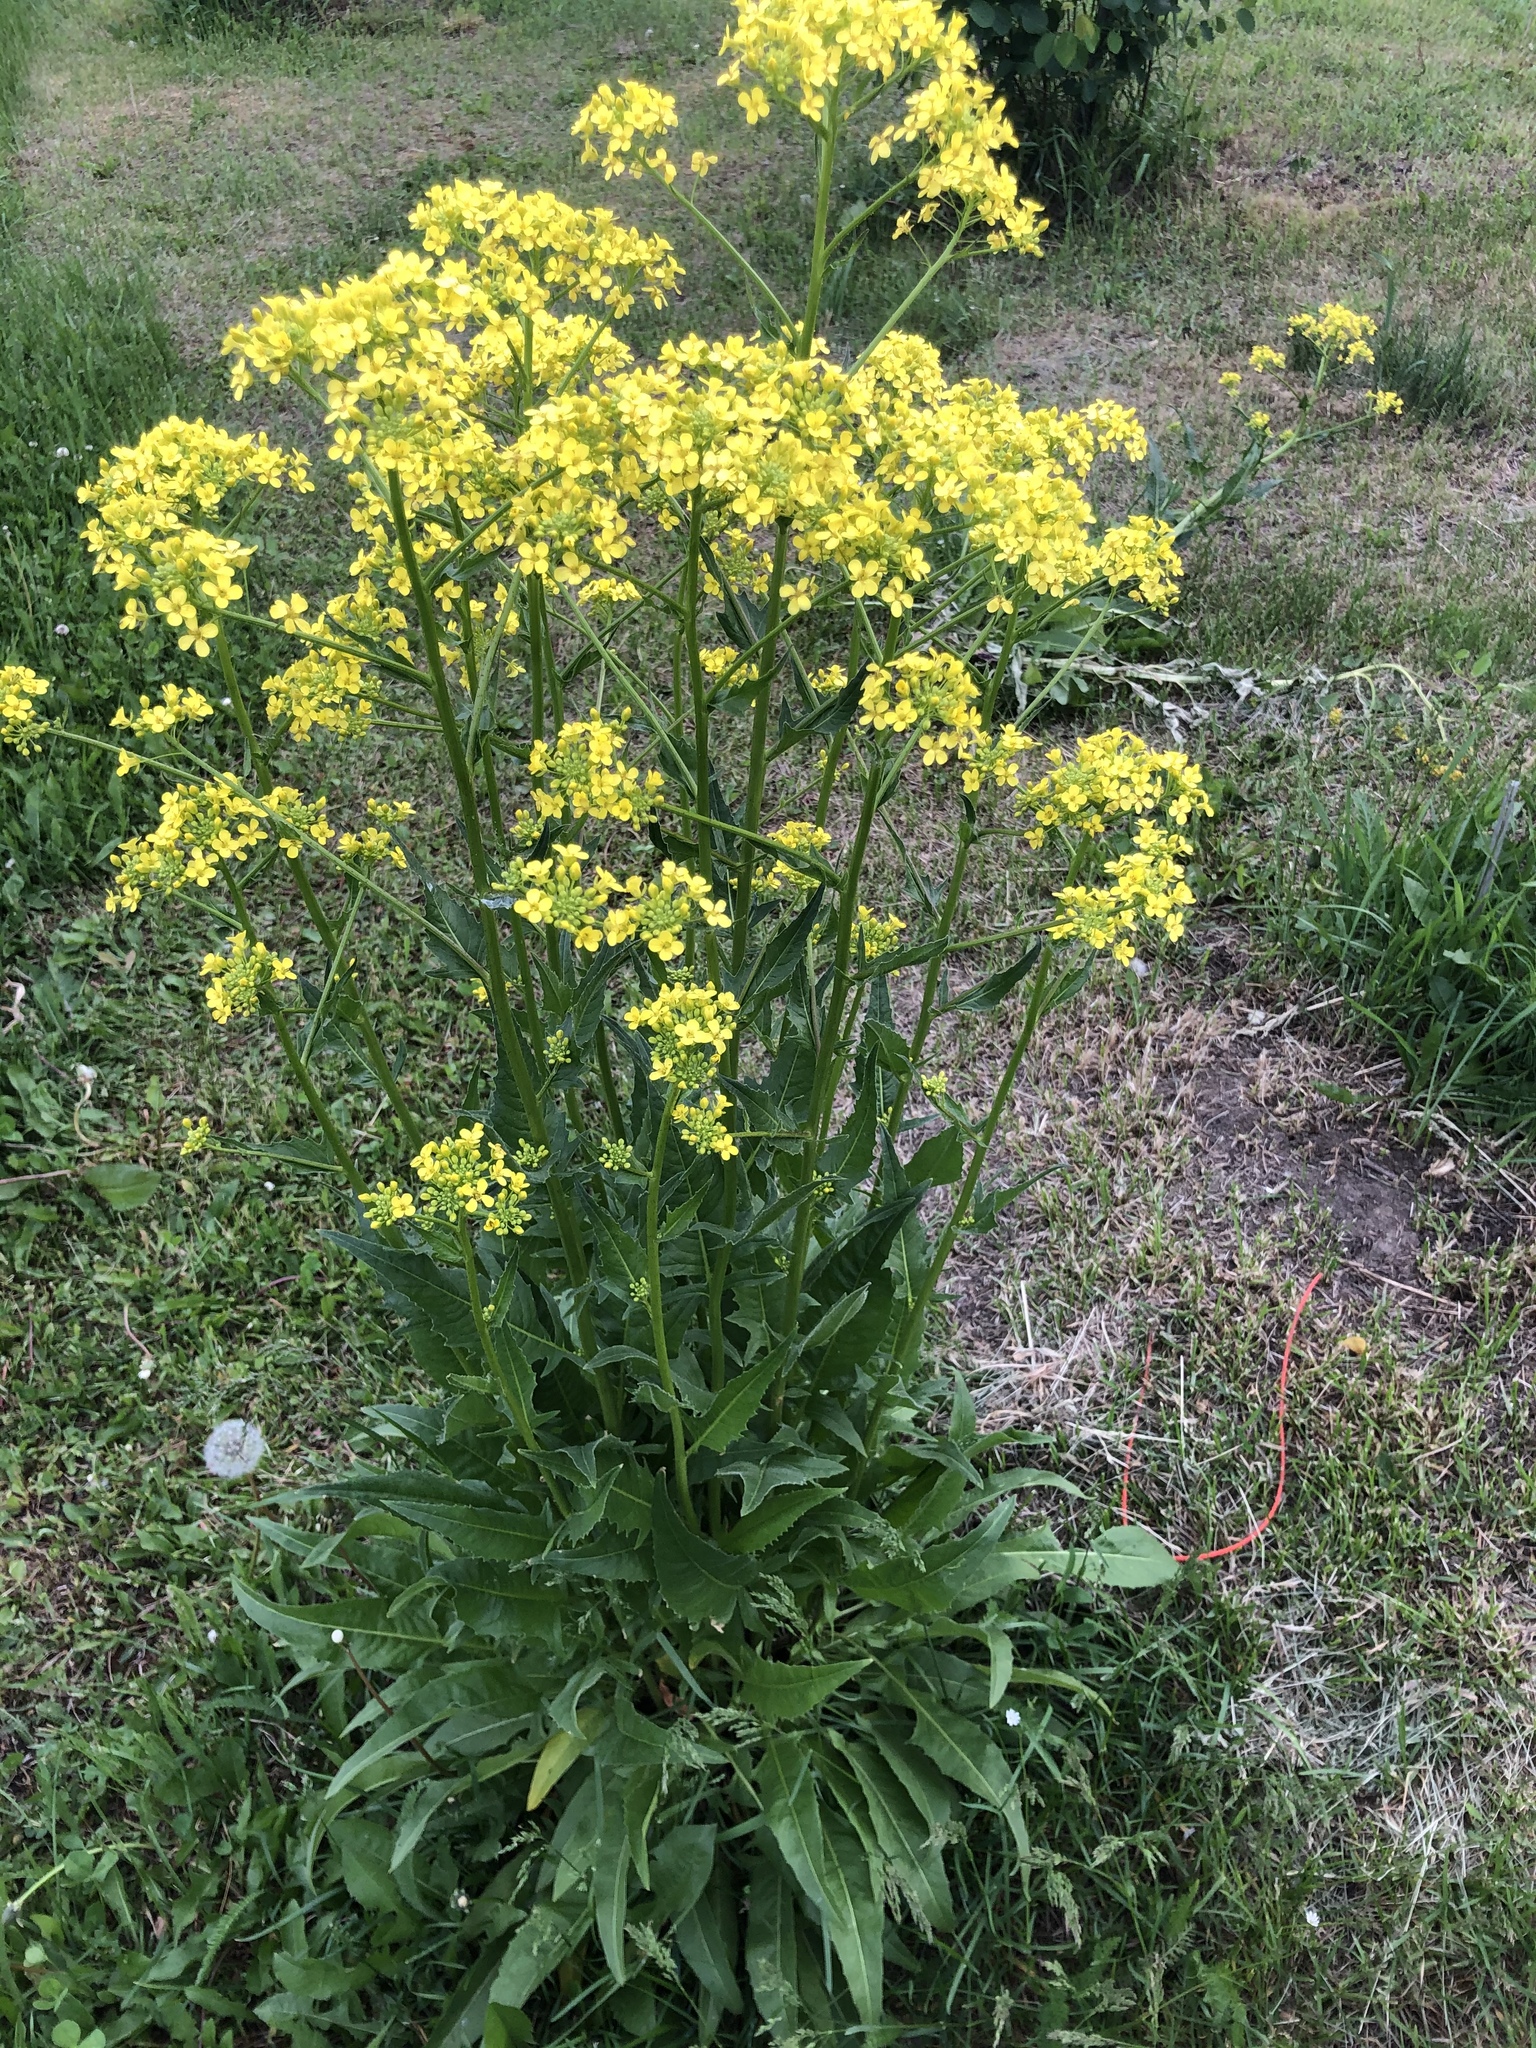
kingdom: Plantae
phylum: Tracheophyta
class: Magnoliopsida
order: Brassicales
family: Brassicaceae
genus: Bunias
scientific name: Bunias orientalis
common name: Warty-cabbage
